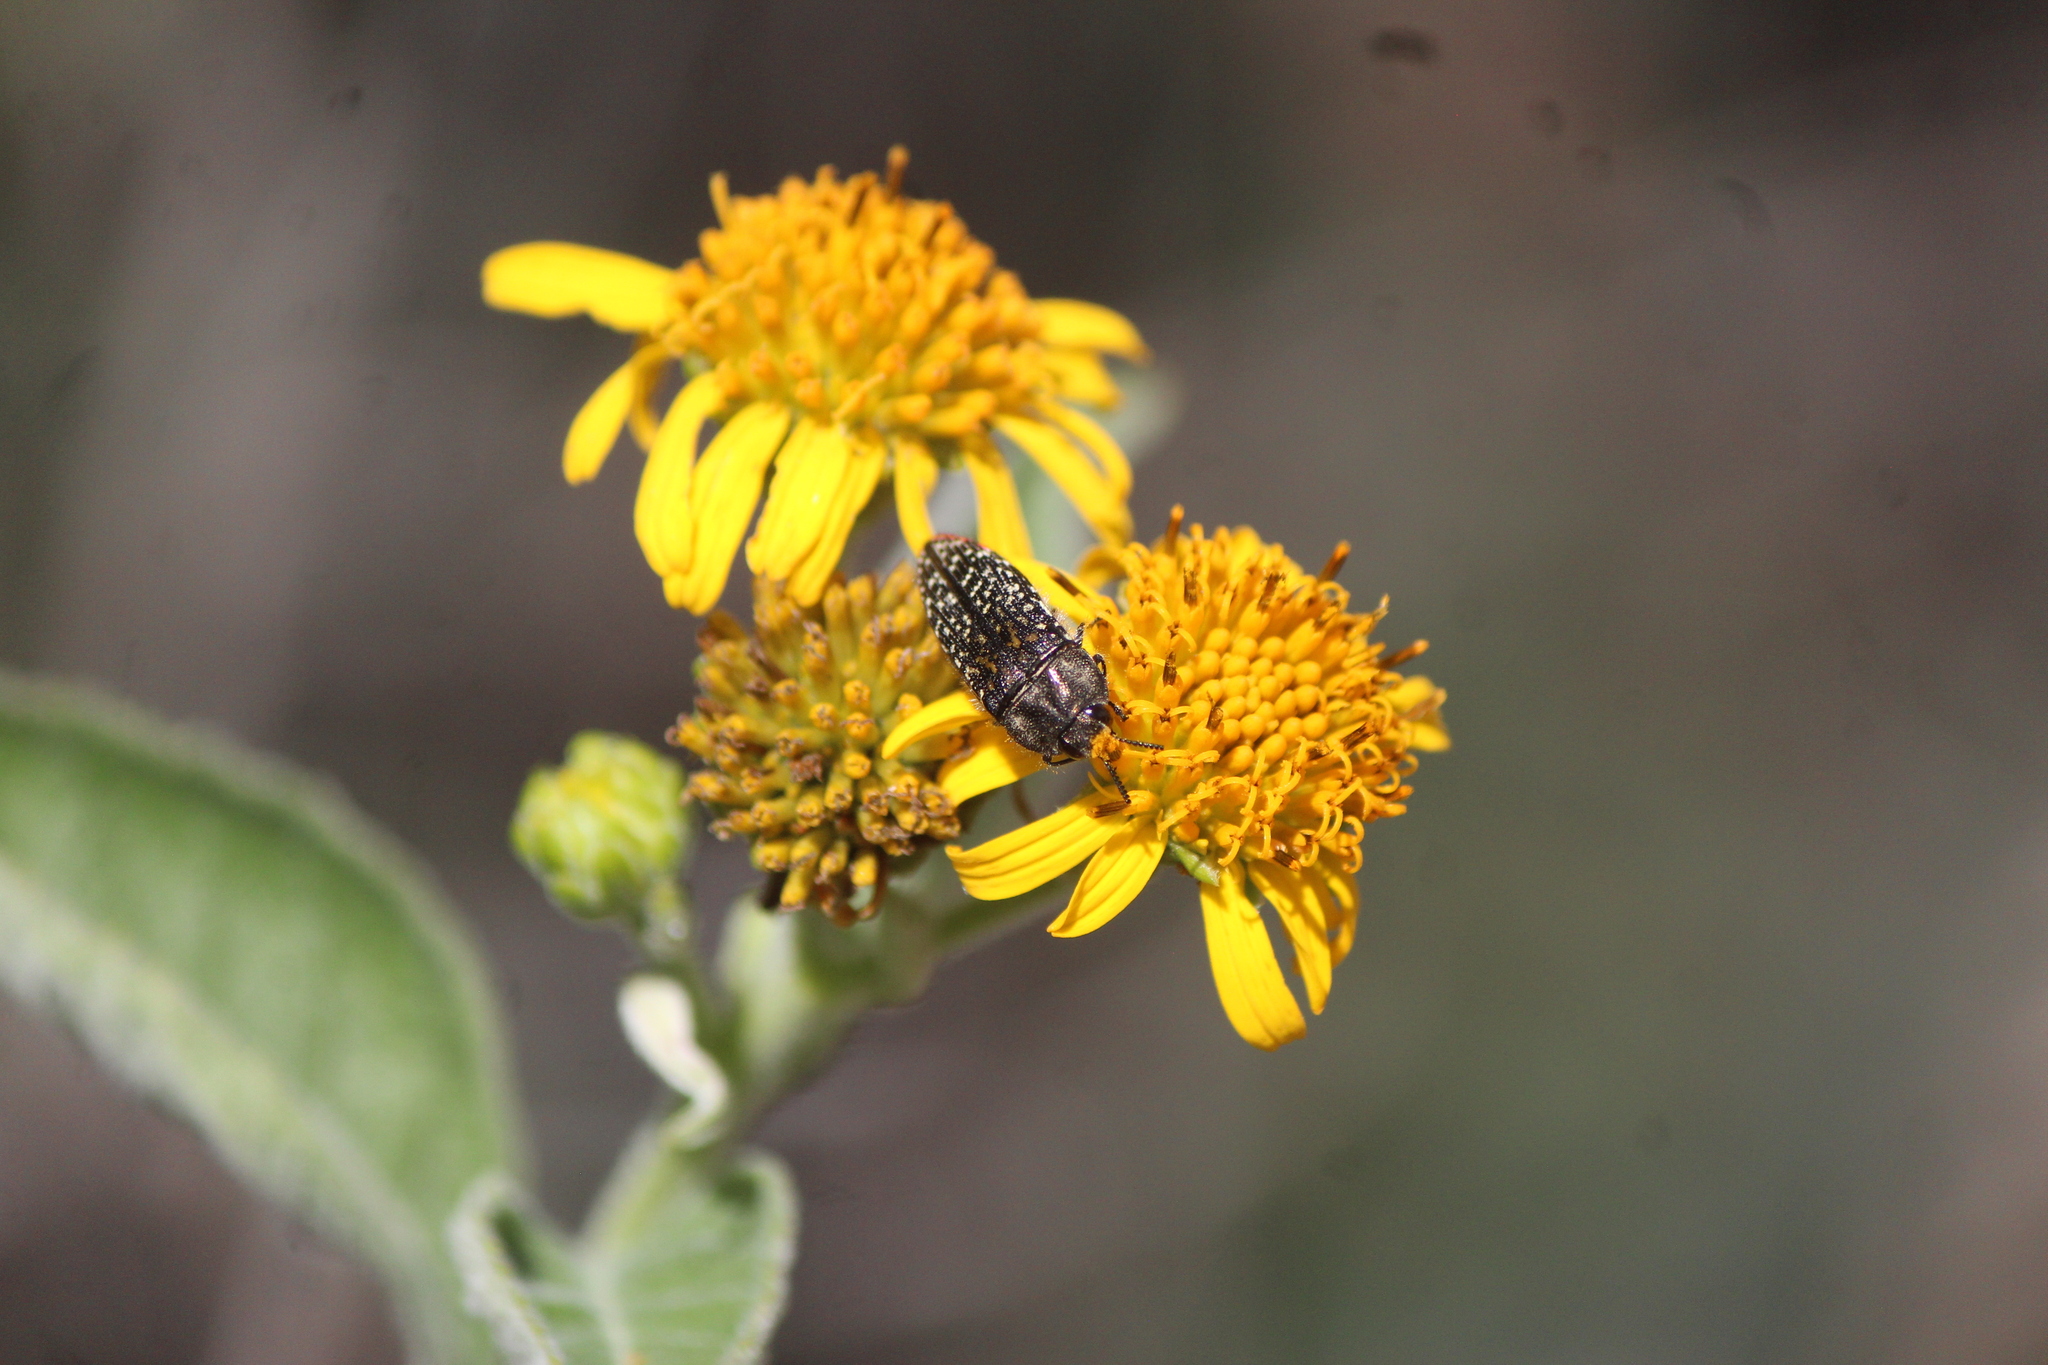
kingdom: Animalia
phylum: Arthropoda
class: Insecta
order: Coleoptera
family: Buprestidae
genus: Acmaeodera
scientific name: Acmaeodera haemorrhoa
